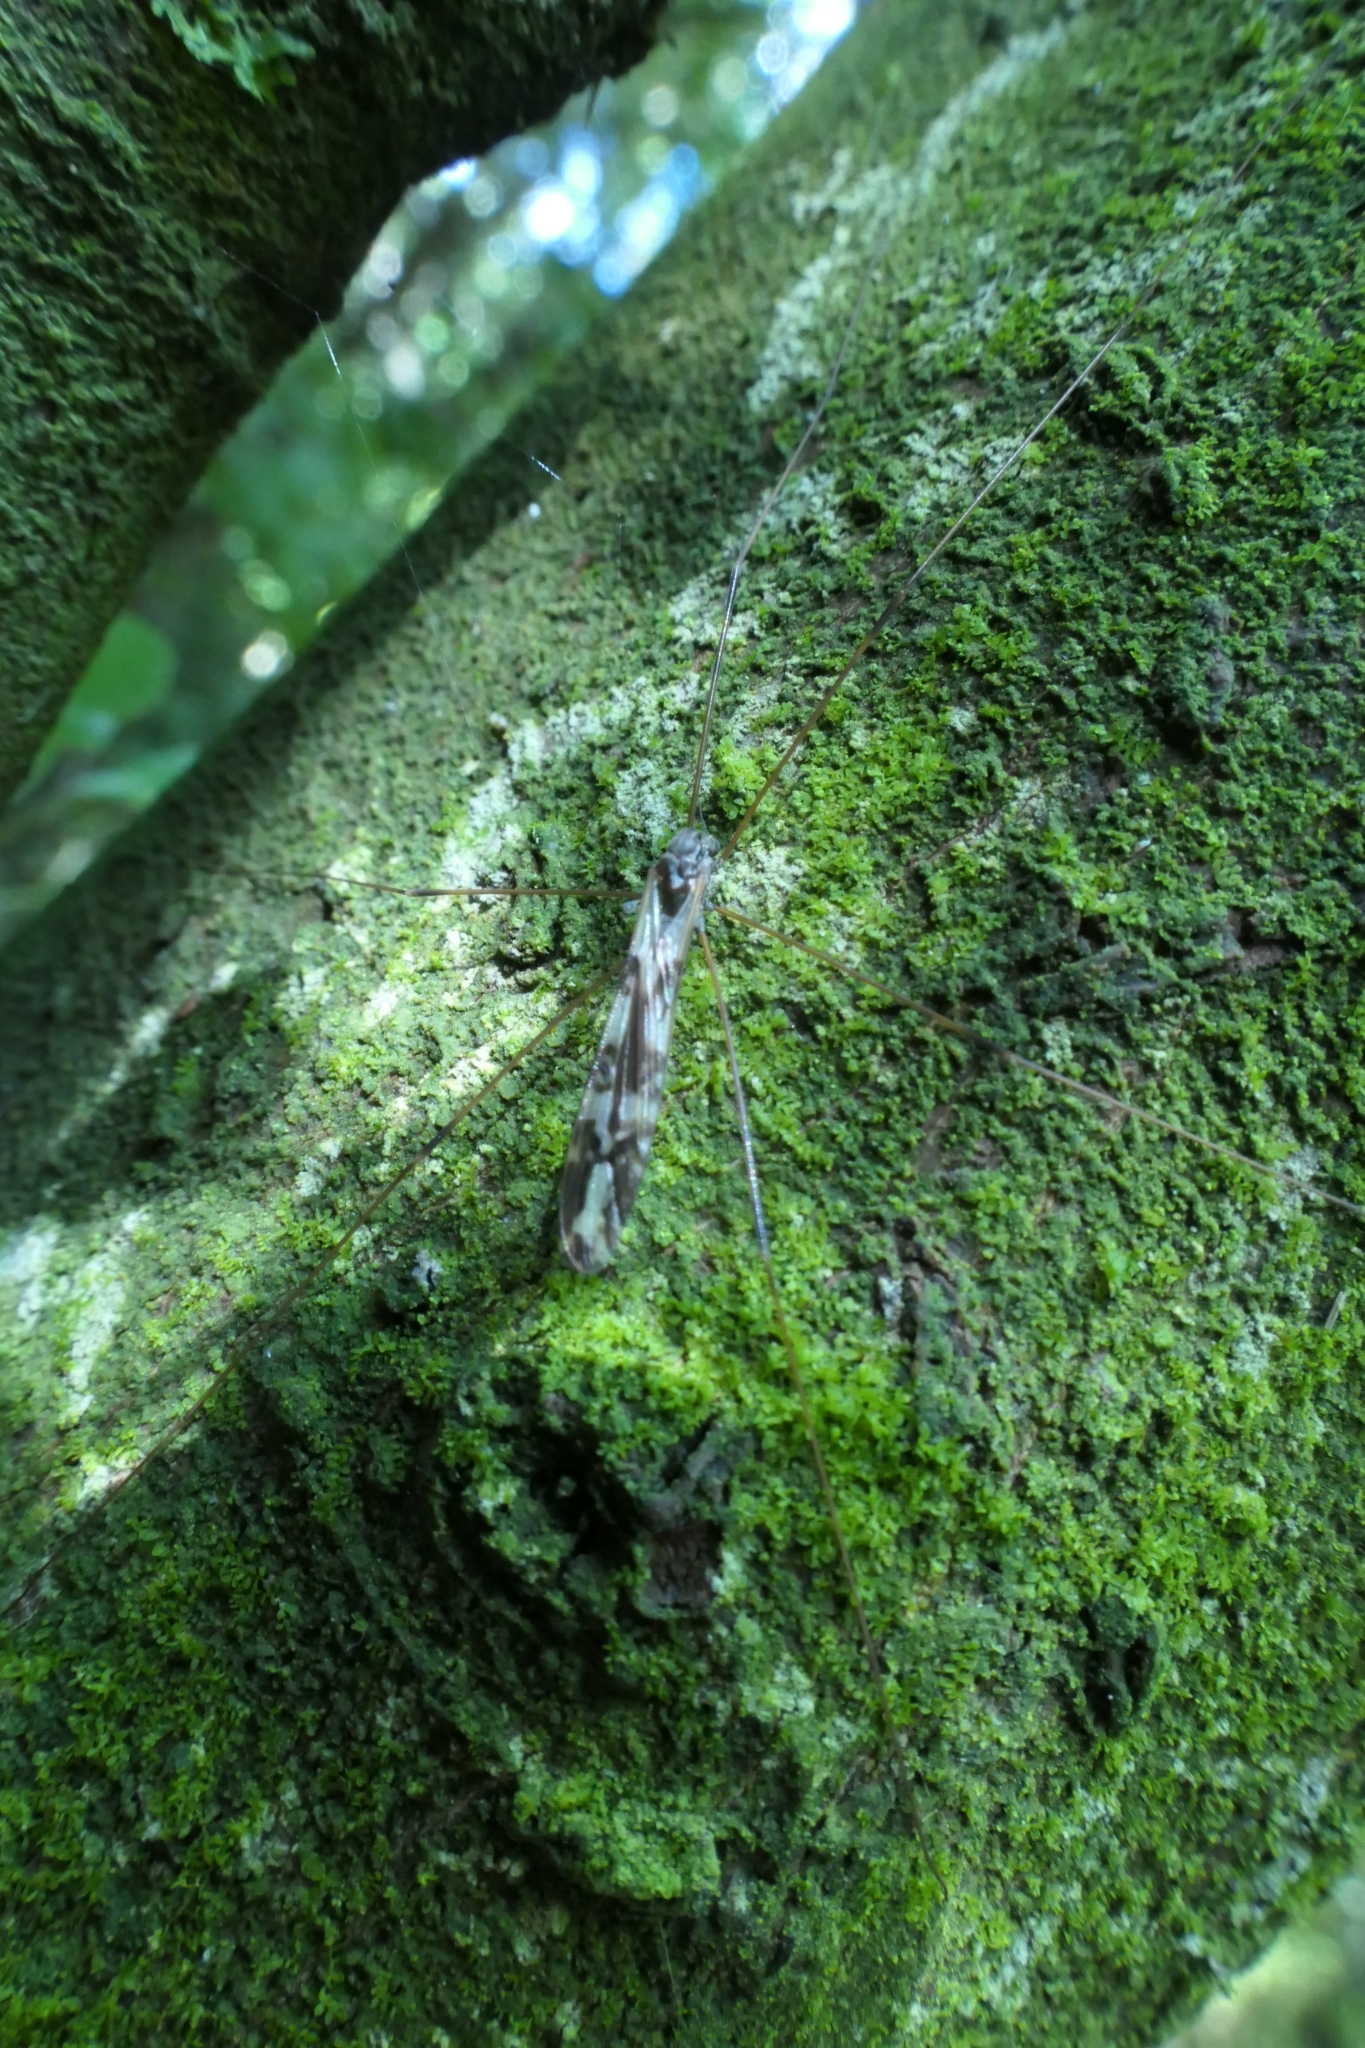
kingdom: Animalia
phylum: Arthropoda
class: Insecta
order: Diptera
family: Limoniidae
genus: Discobola
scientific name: Discobola dohrni
